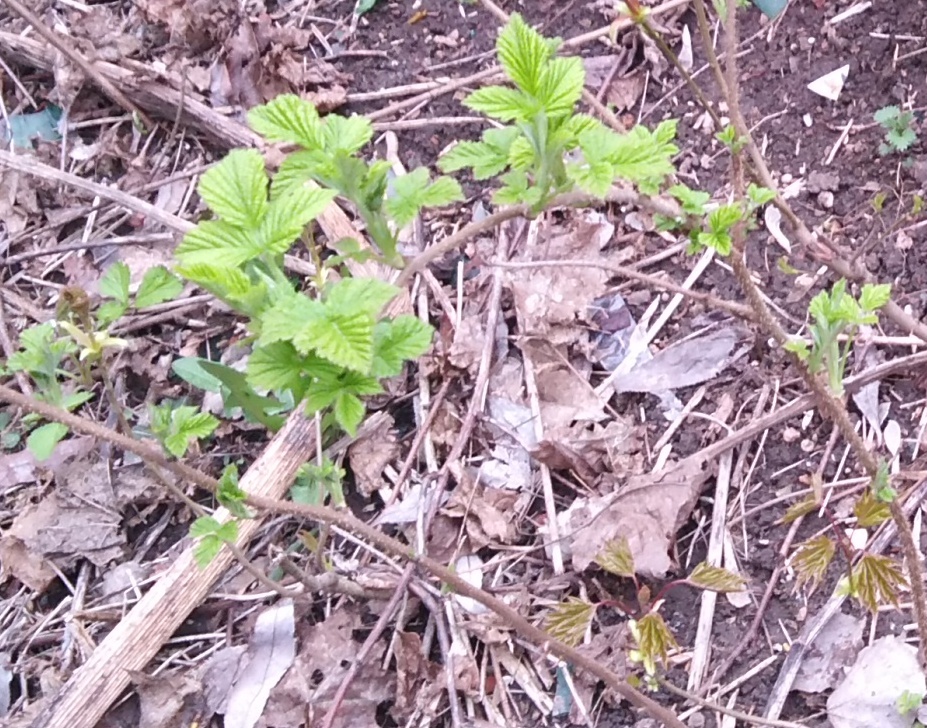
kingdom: Plantae
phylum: Tracheophyta
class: Magnoliopsida
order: Rosales
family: Rosaceae
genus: Rubus
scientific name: Rubus idaeus
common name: Raspberry
